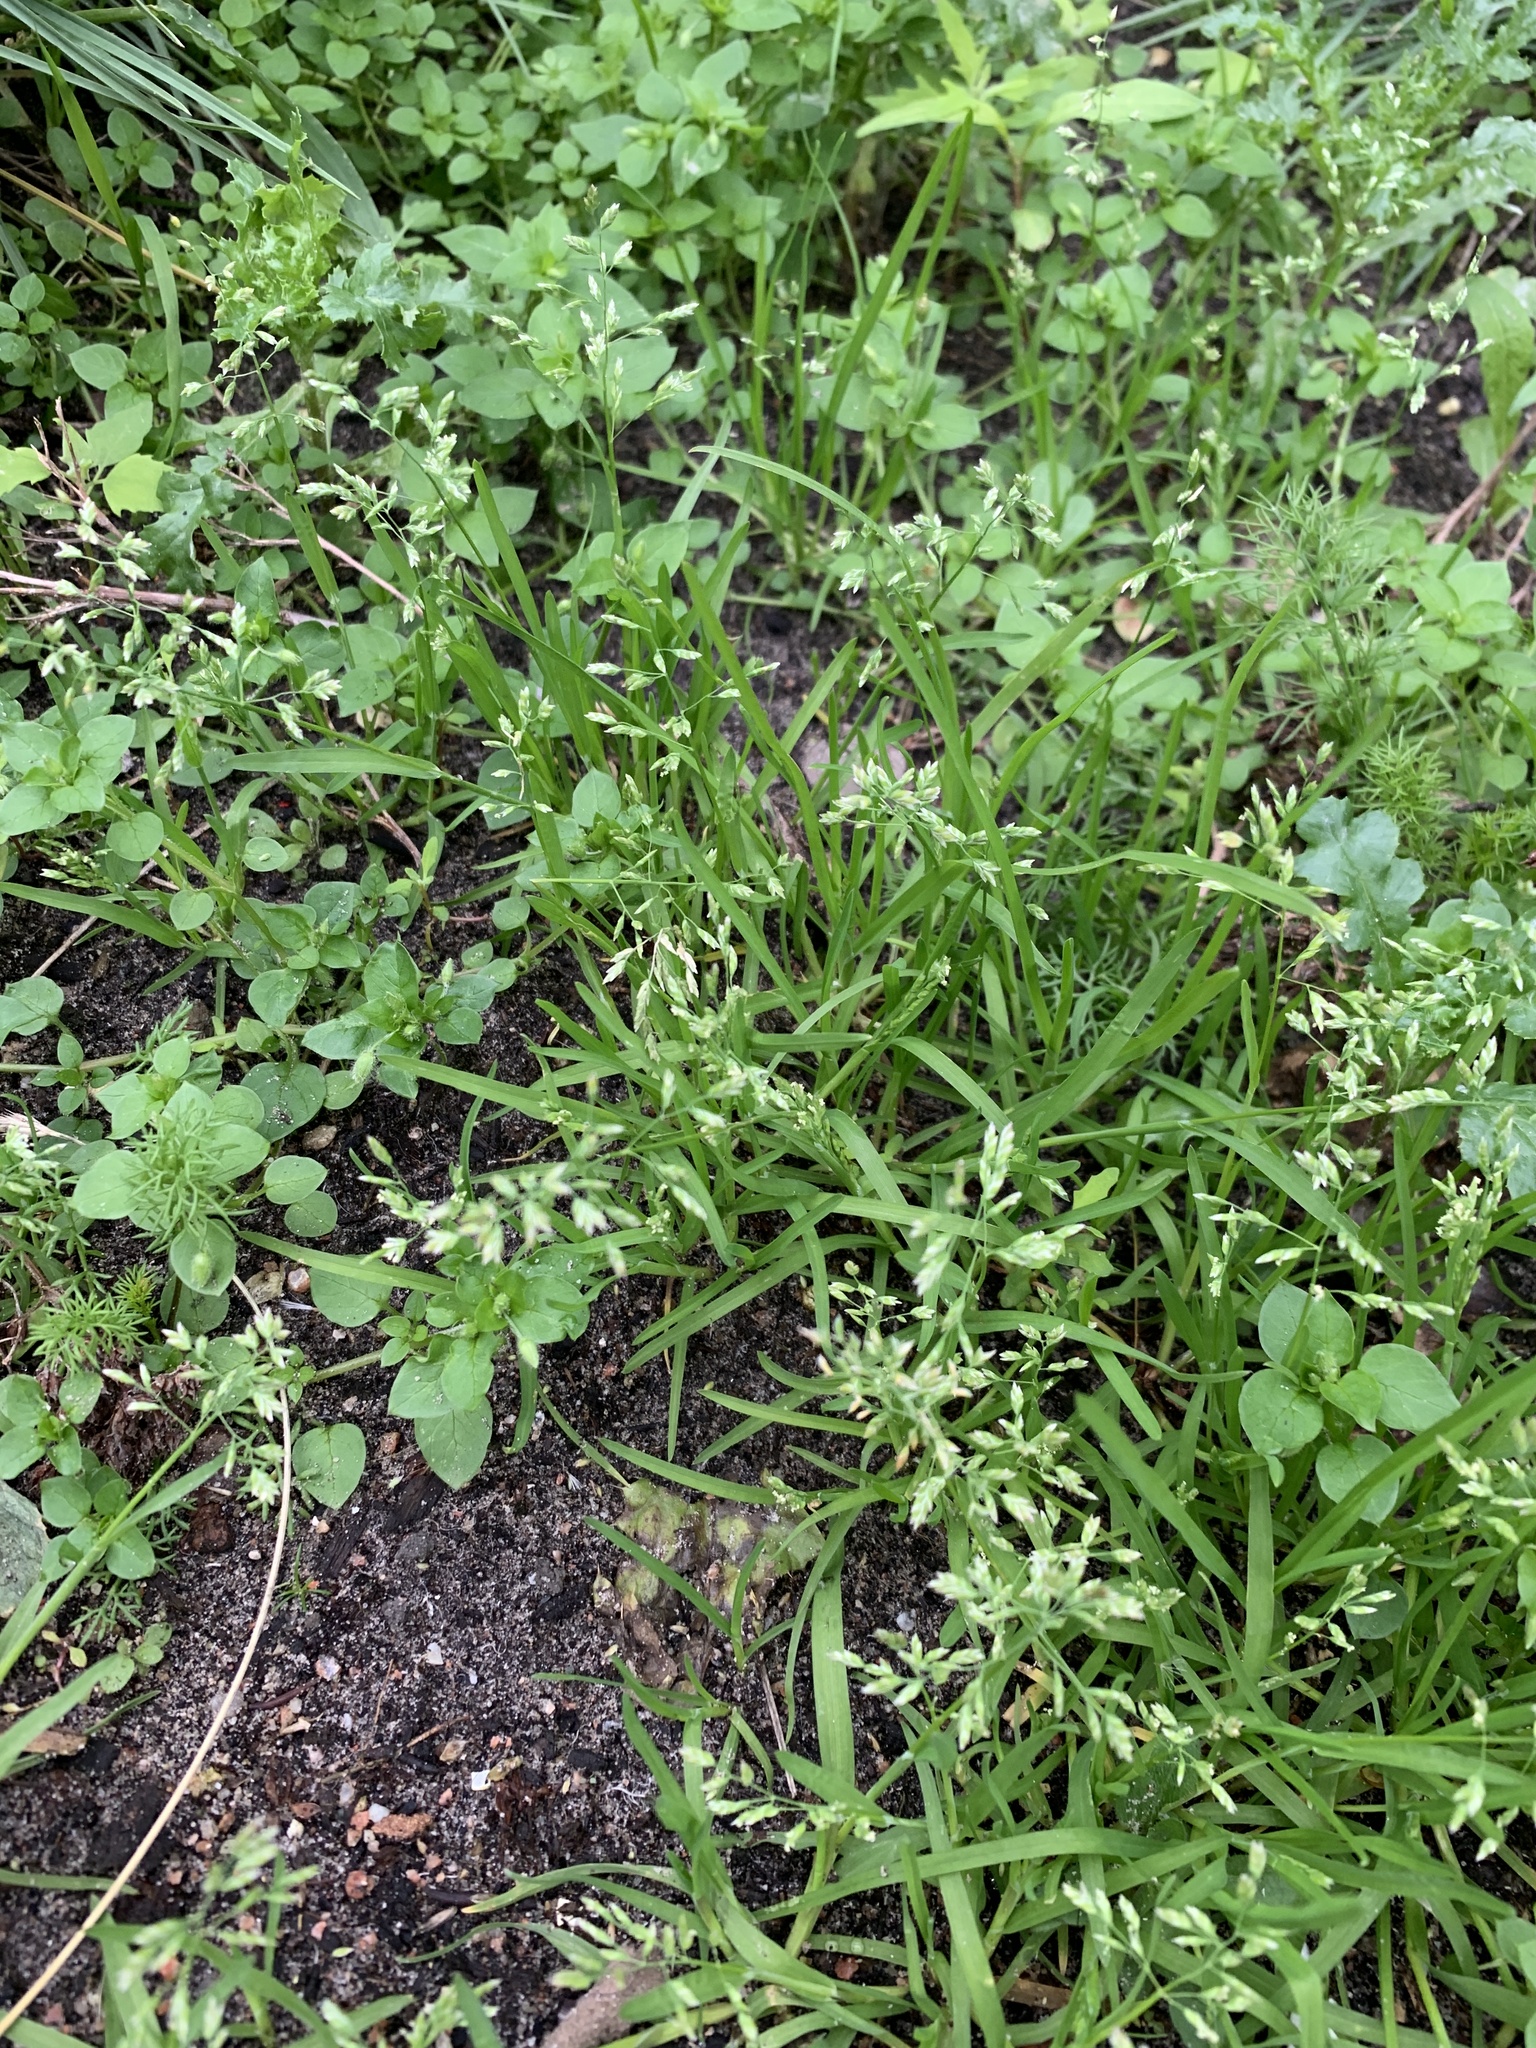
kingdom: Plantae
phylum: Tracheophyta
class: Liliopsida
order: Poales
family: Poaceae
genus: Poa
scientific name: Poa annua
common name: Annual bluegrass
